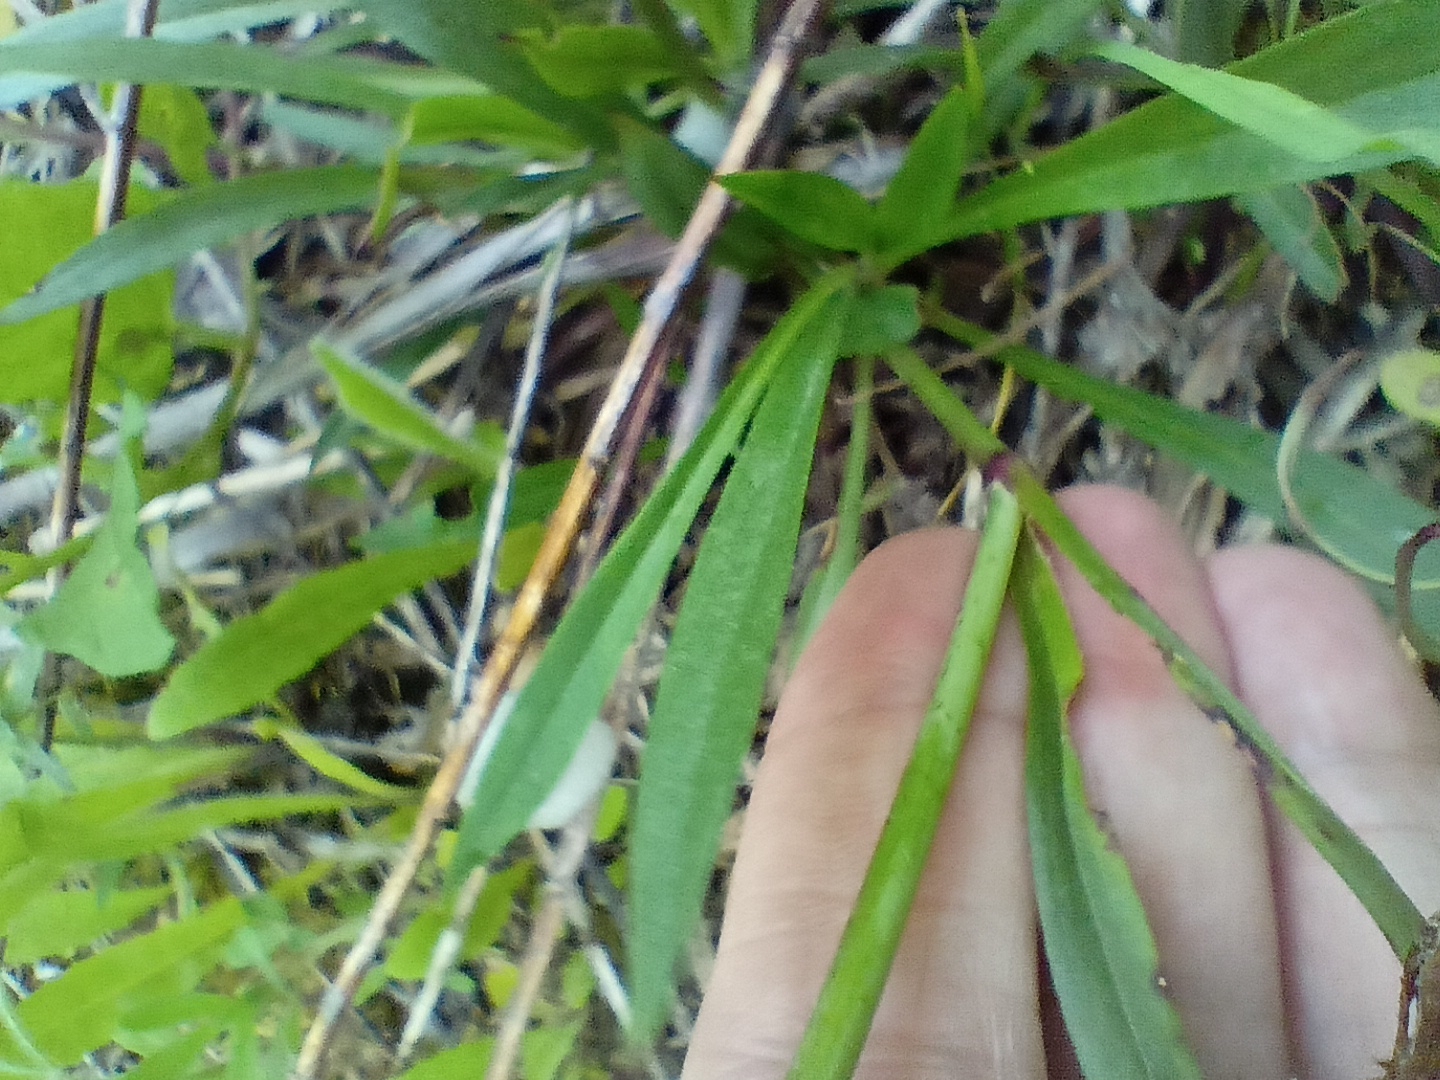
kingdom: Plantae
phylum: Tracheophyta
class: Magnoliopsida
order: Caryophyllales
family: Caryophyllaceae
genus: Viscaria
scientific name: Viscaria vulgaris
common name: Clammy campion
